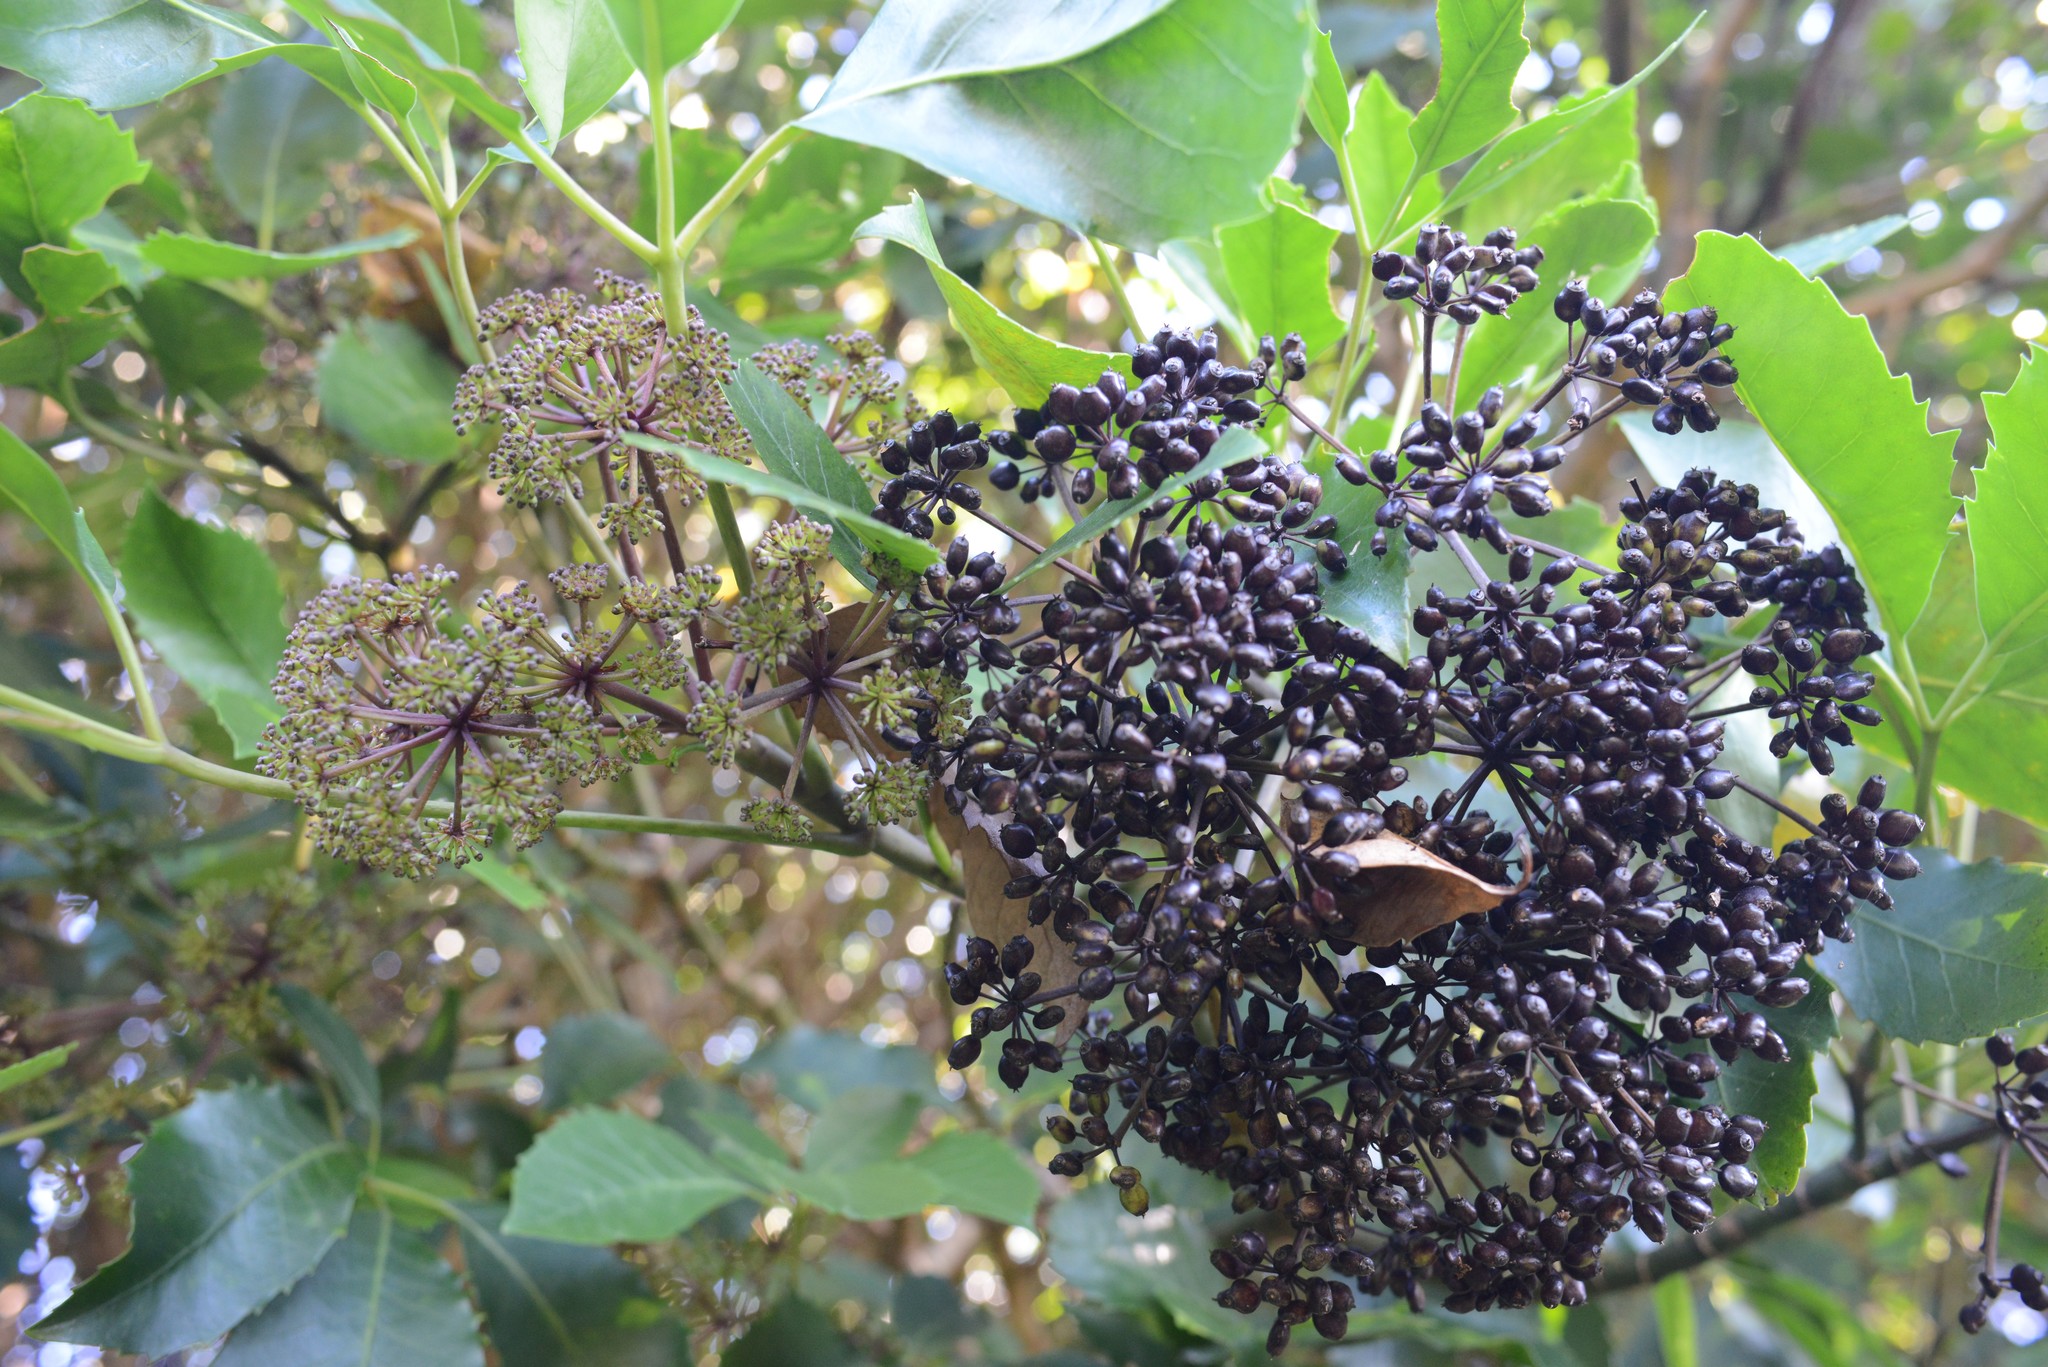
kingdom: Plantae
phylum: Tracheophyta
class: Magnoliopsida
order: Apiales
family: Araliaceae
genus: Neopanax
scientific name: Neopanax arboreus
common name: Five-fingers
